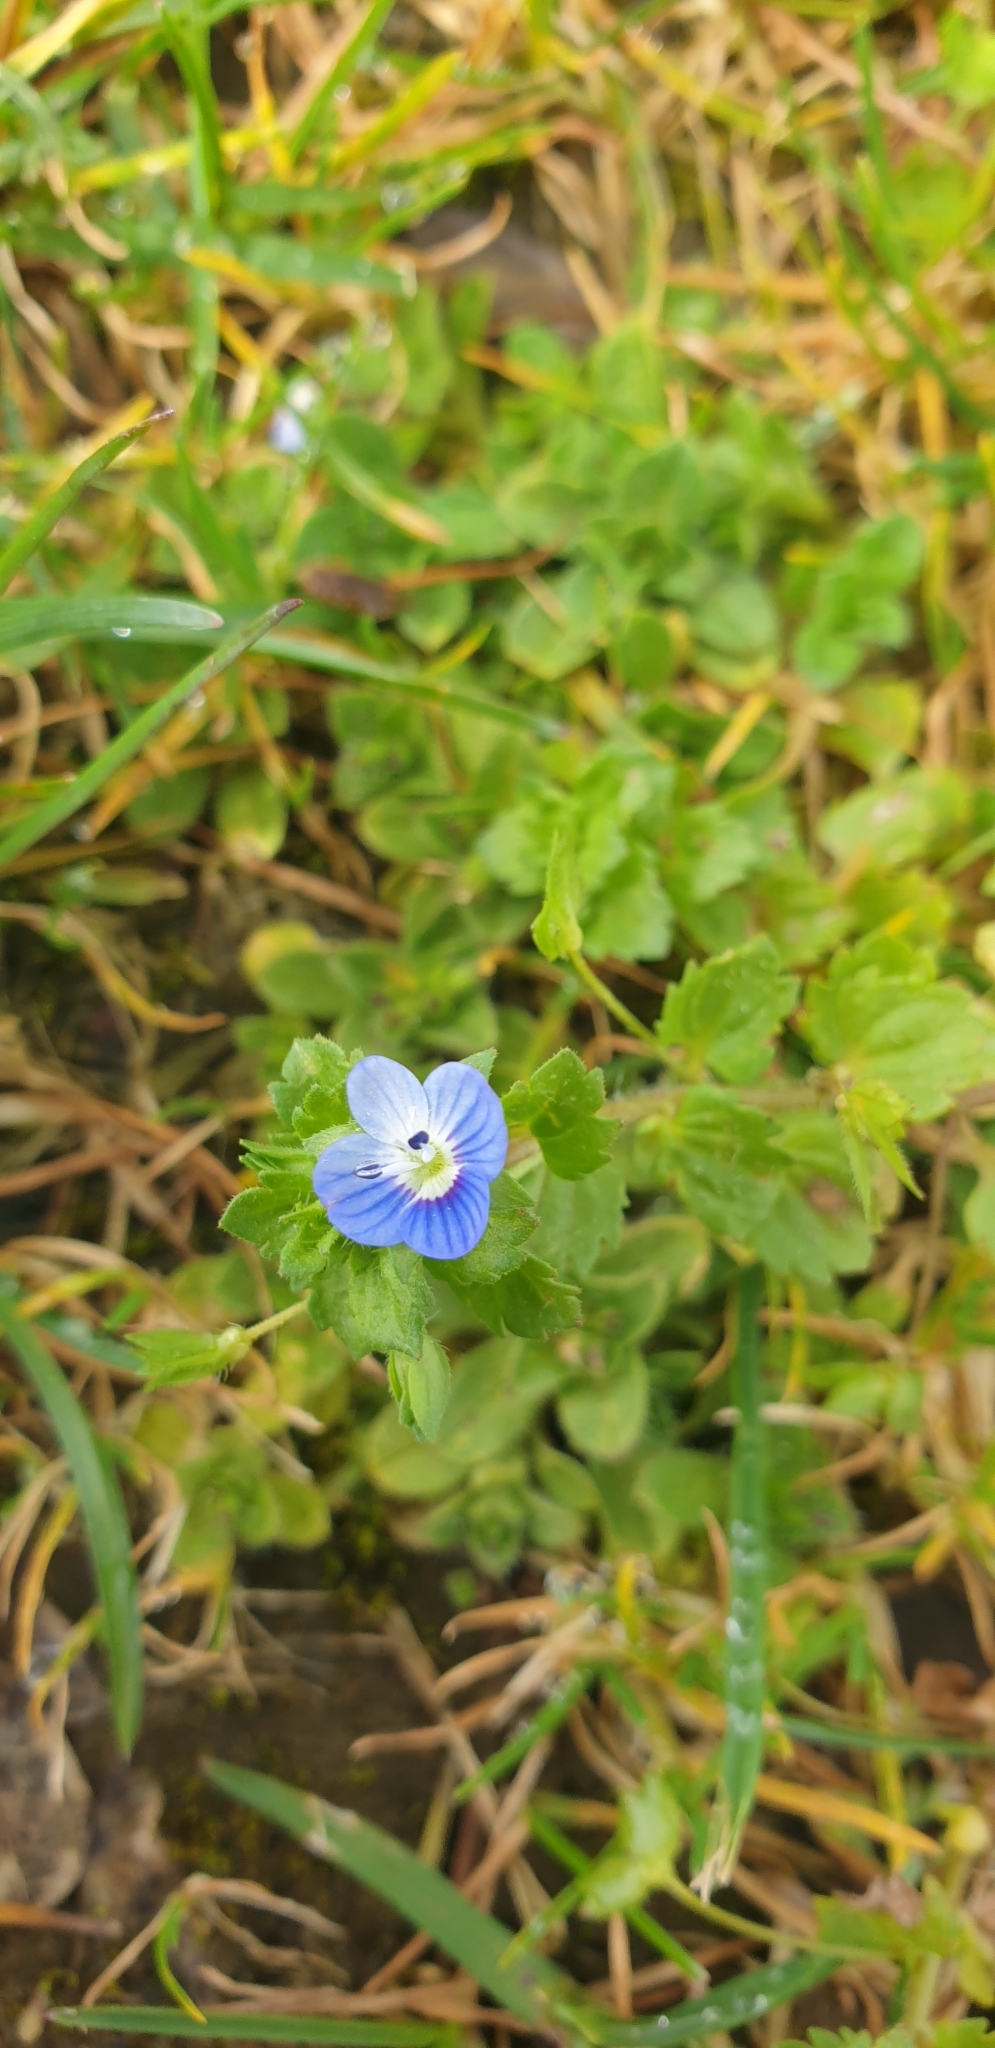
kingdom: Plantae
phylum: Tracheophyta
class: Magnoliopsida
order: Lamiales
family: Plantaginaceae
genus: Veronica
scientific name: Veronica persica
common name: Common field-speedwell
